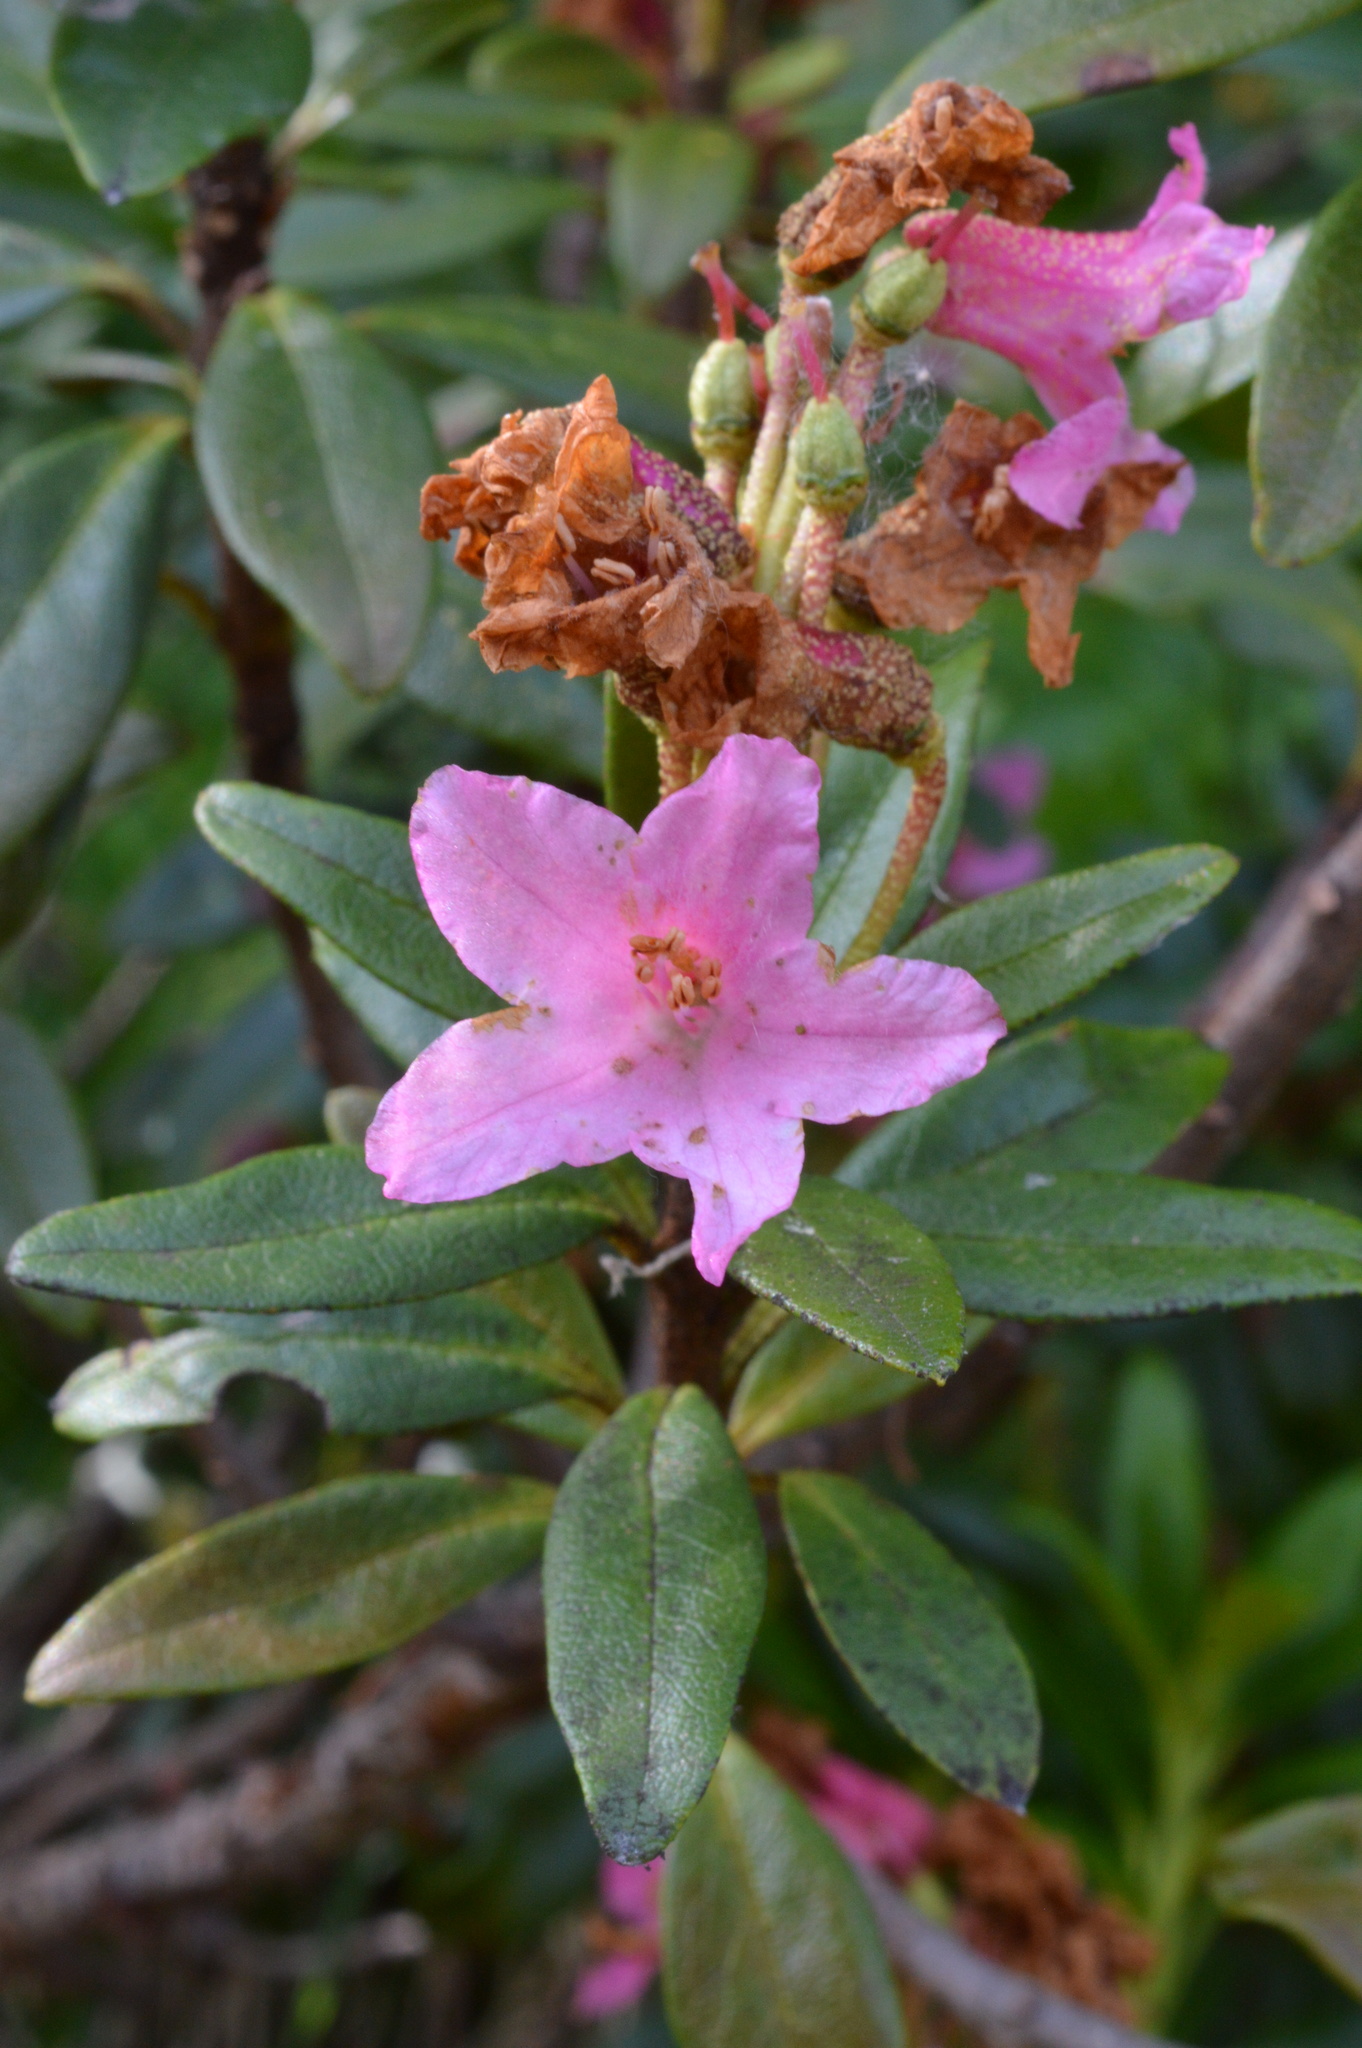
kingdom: Plantae
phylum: Tracheophyta
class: Magnoliopsida
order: Ericales
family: Ericaceae
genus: Rhododendron
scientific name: Rhododendron ferrugineum
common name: Alpenrose
